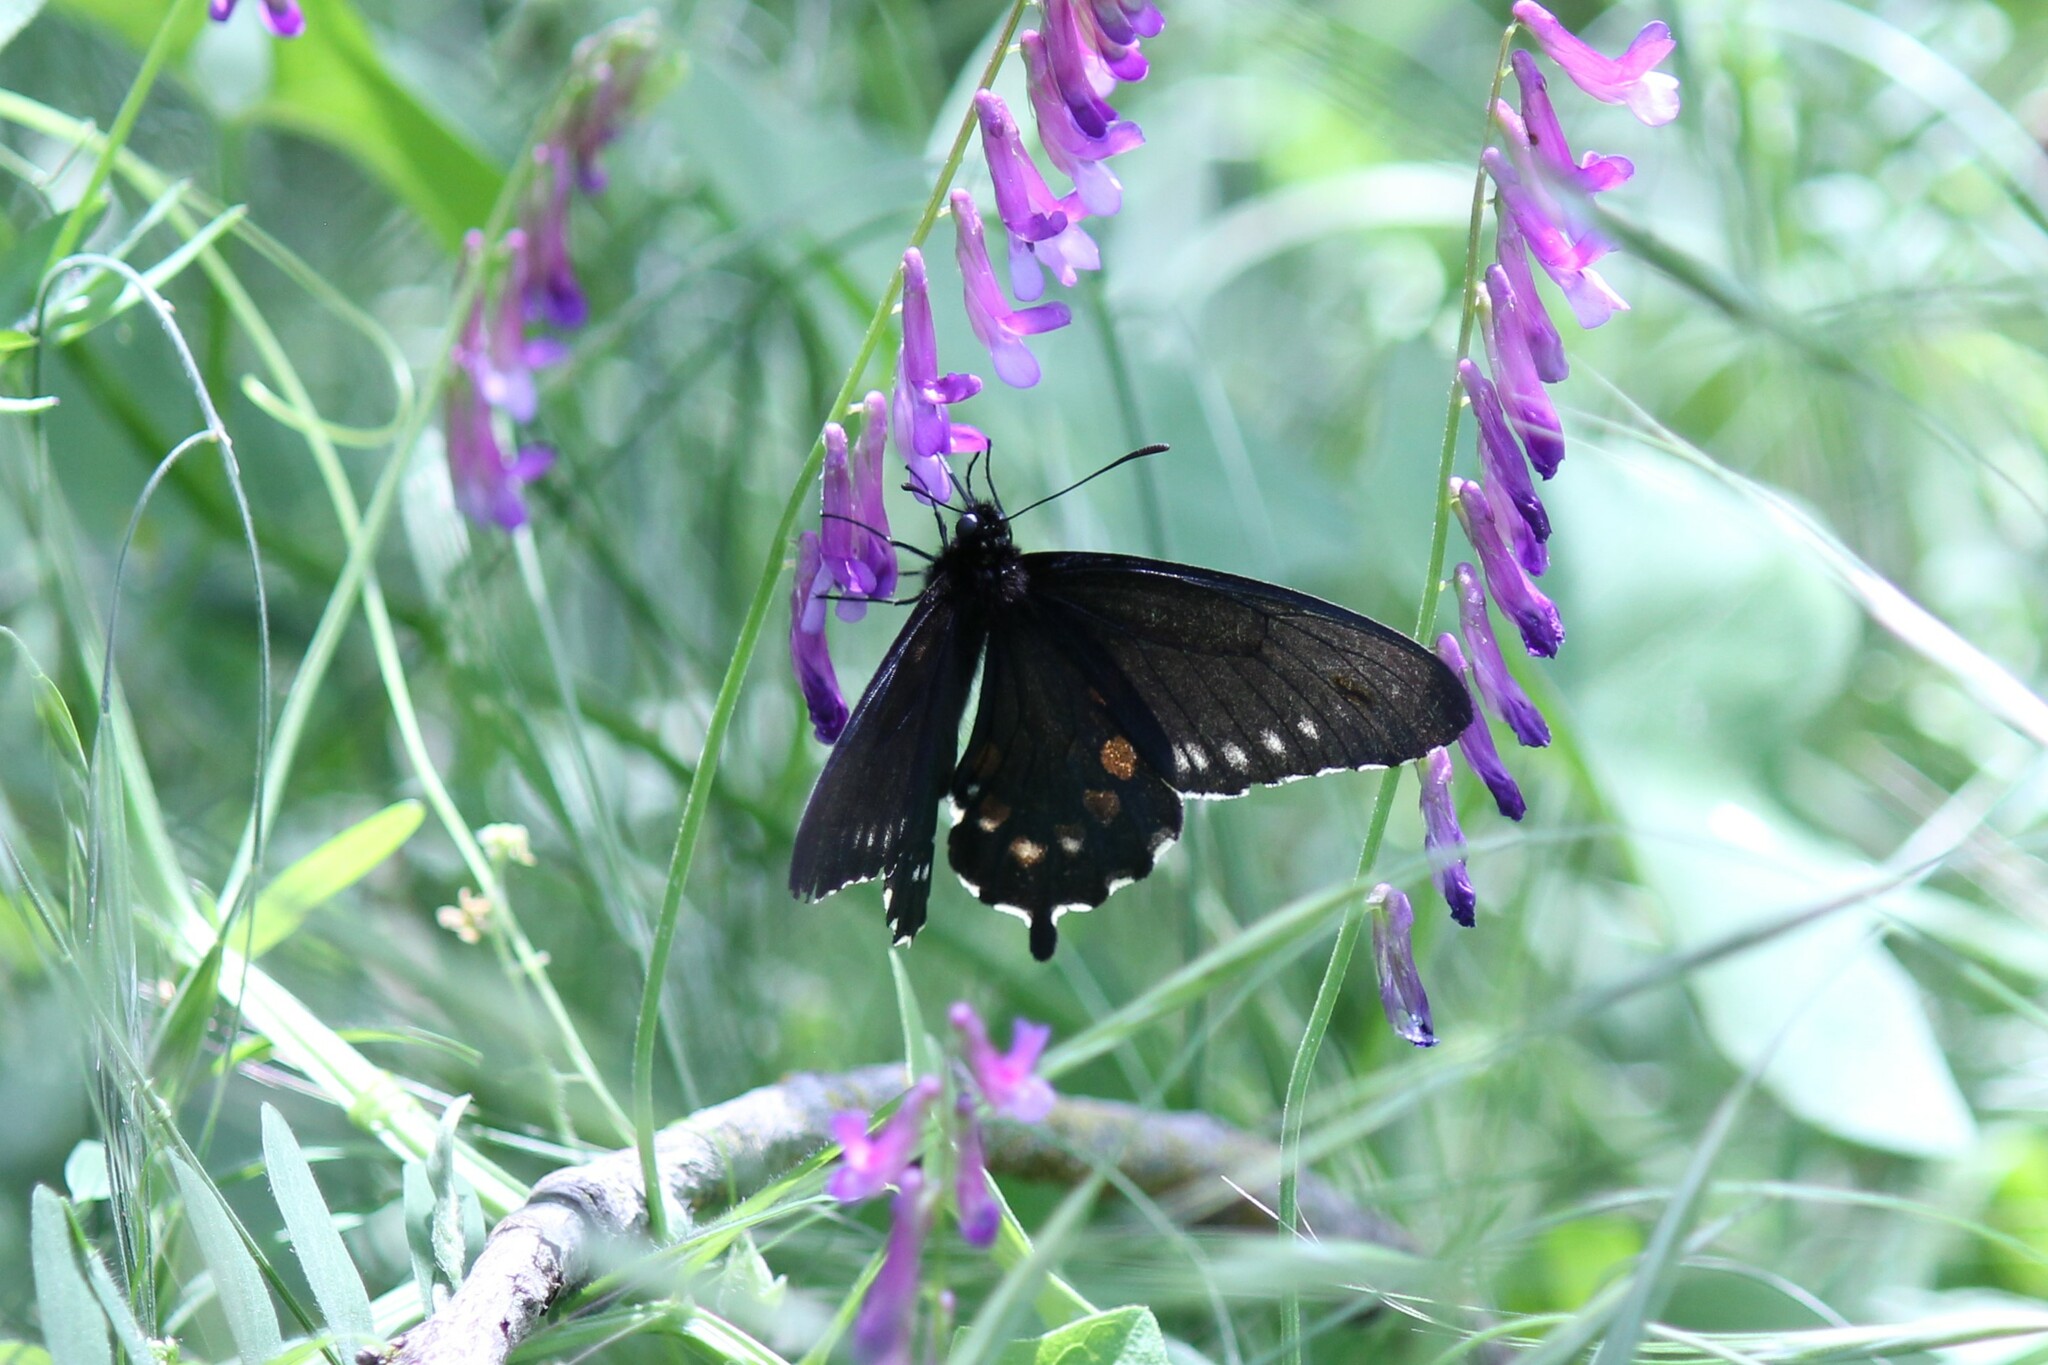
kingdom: Animalia
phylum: Arthropoda
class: Insecta
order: Lepidoptera
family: Papilionidae
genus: Battus
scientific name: Battus philenor
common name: Pipevine swallowtail
